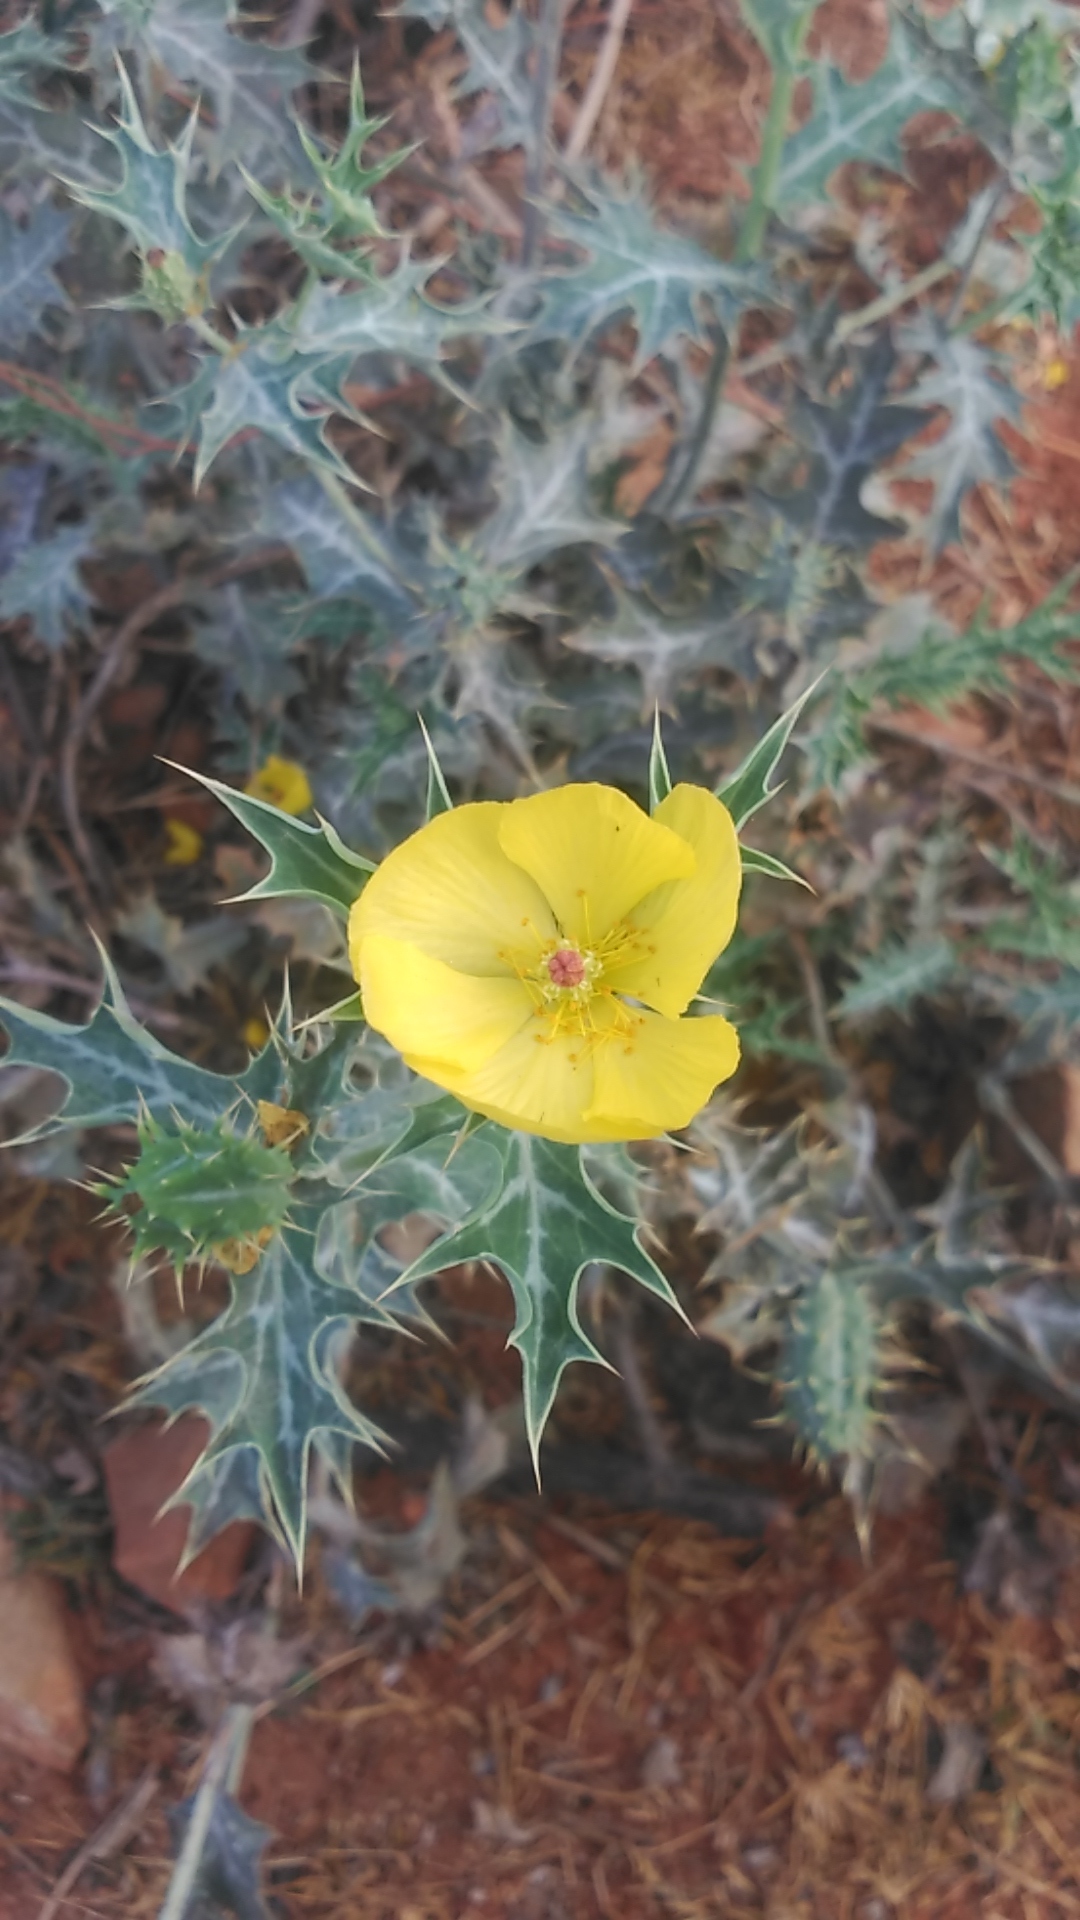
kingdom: Plantae
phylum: Tracheophyta
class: Magnoliopsida
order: Ranunculales
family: Papaveraceae
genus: Argemone
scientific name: Argemone mexicana
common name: Mexican poppy
